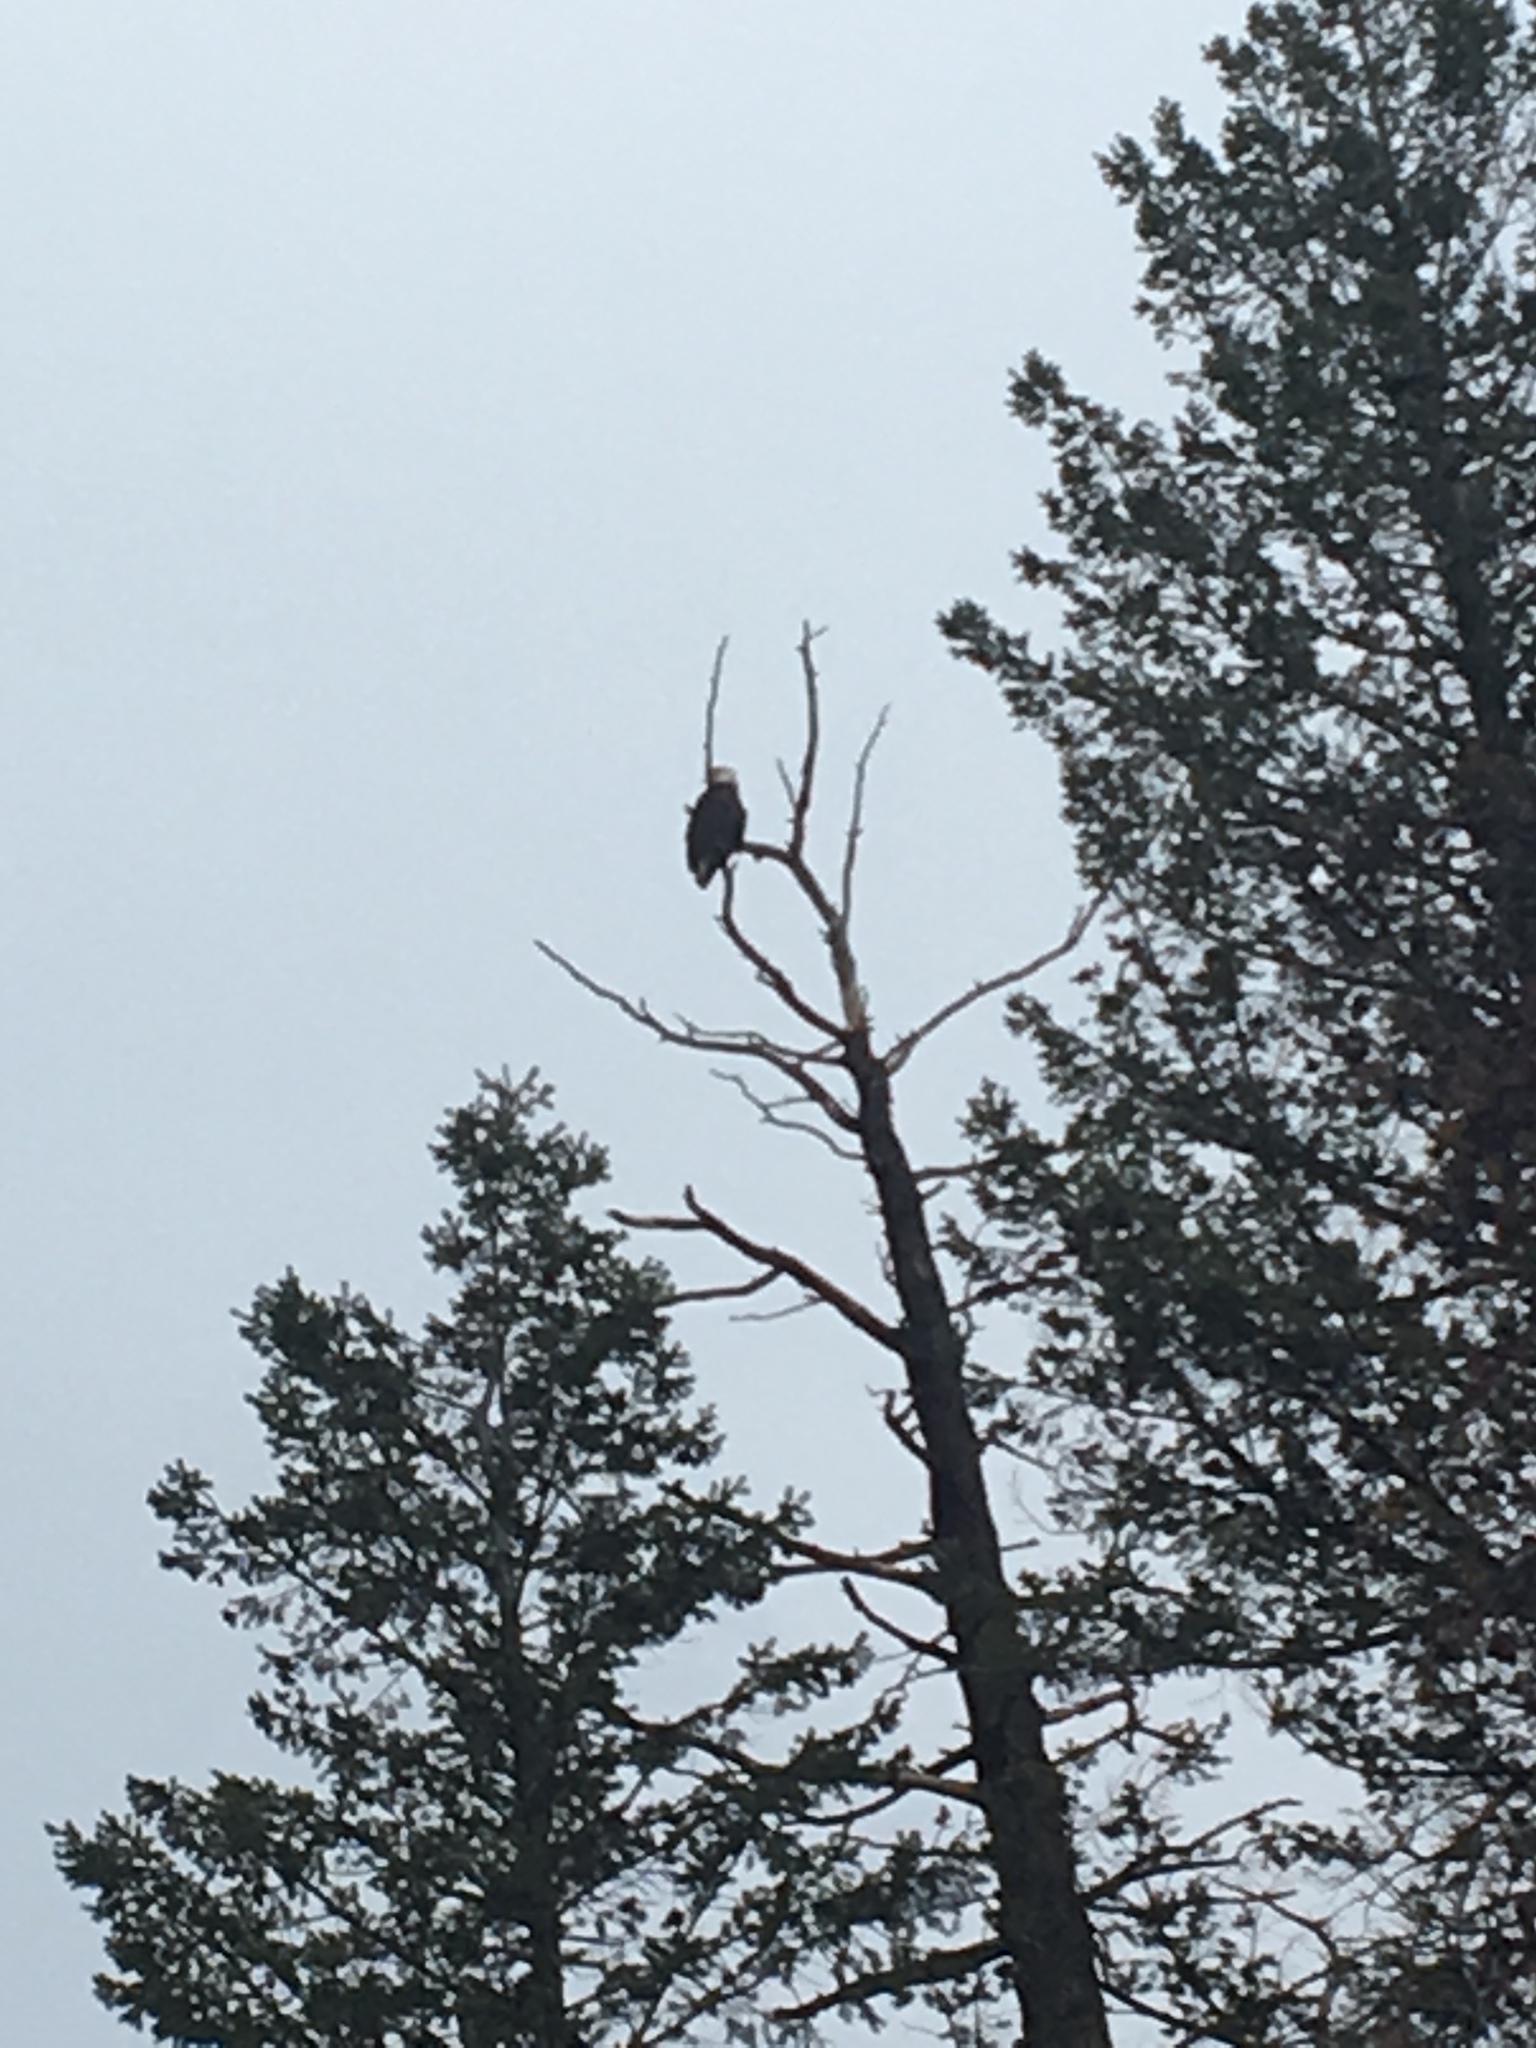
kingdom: Animalia
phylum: Chordata
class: Aves
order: Accipitriformes
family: Accipitridae
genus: Haliaeetus
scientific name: Haliaeetus leucocephalus
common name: Bald eagle
